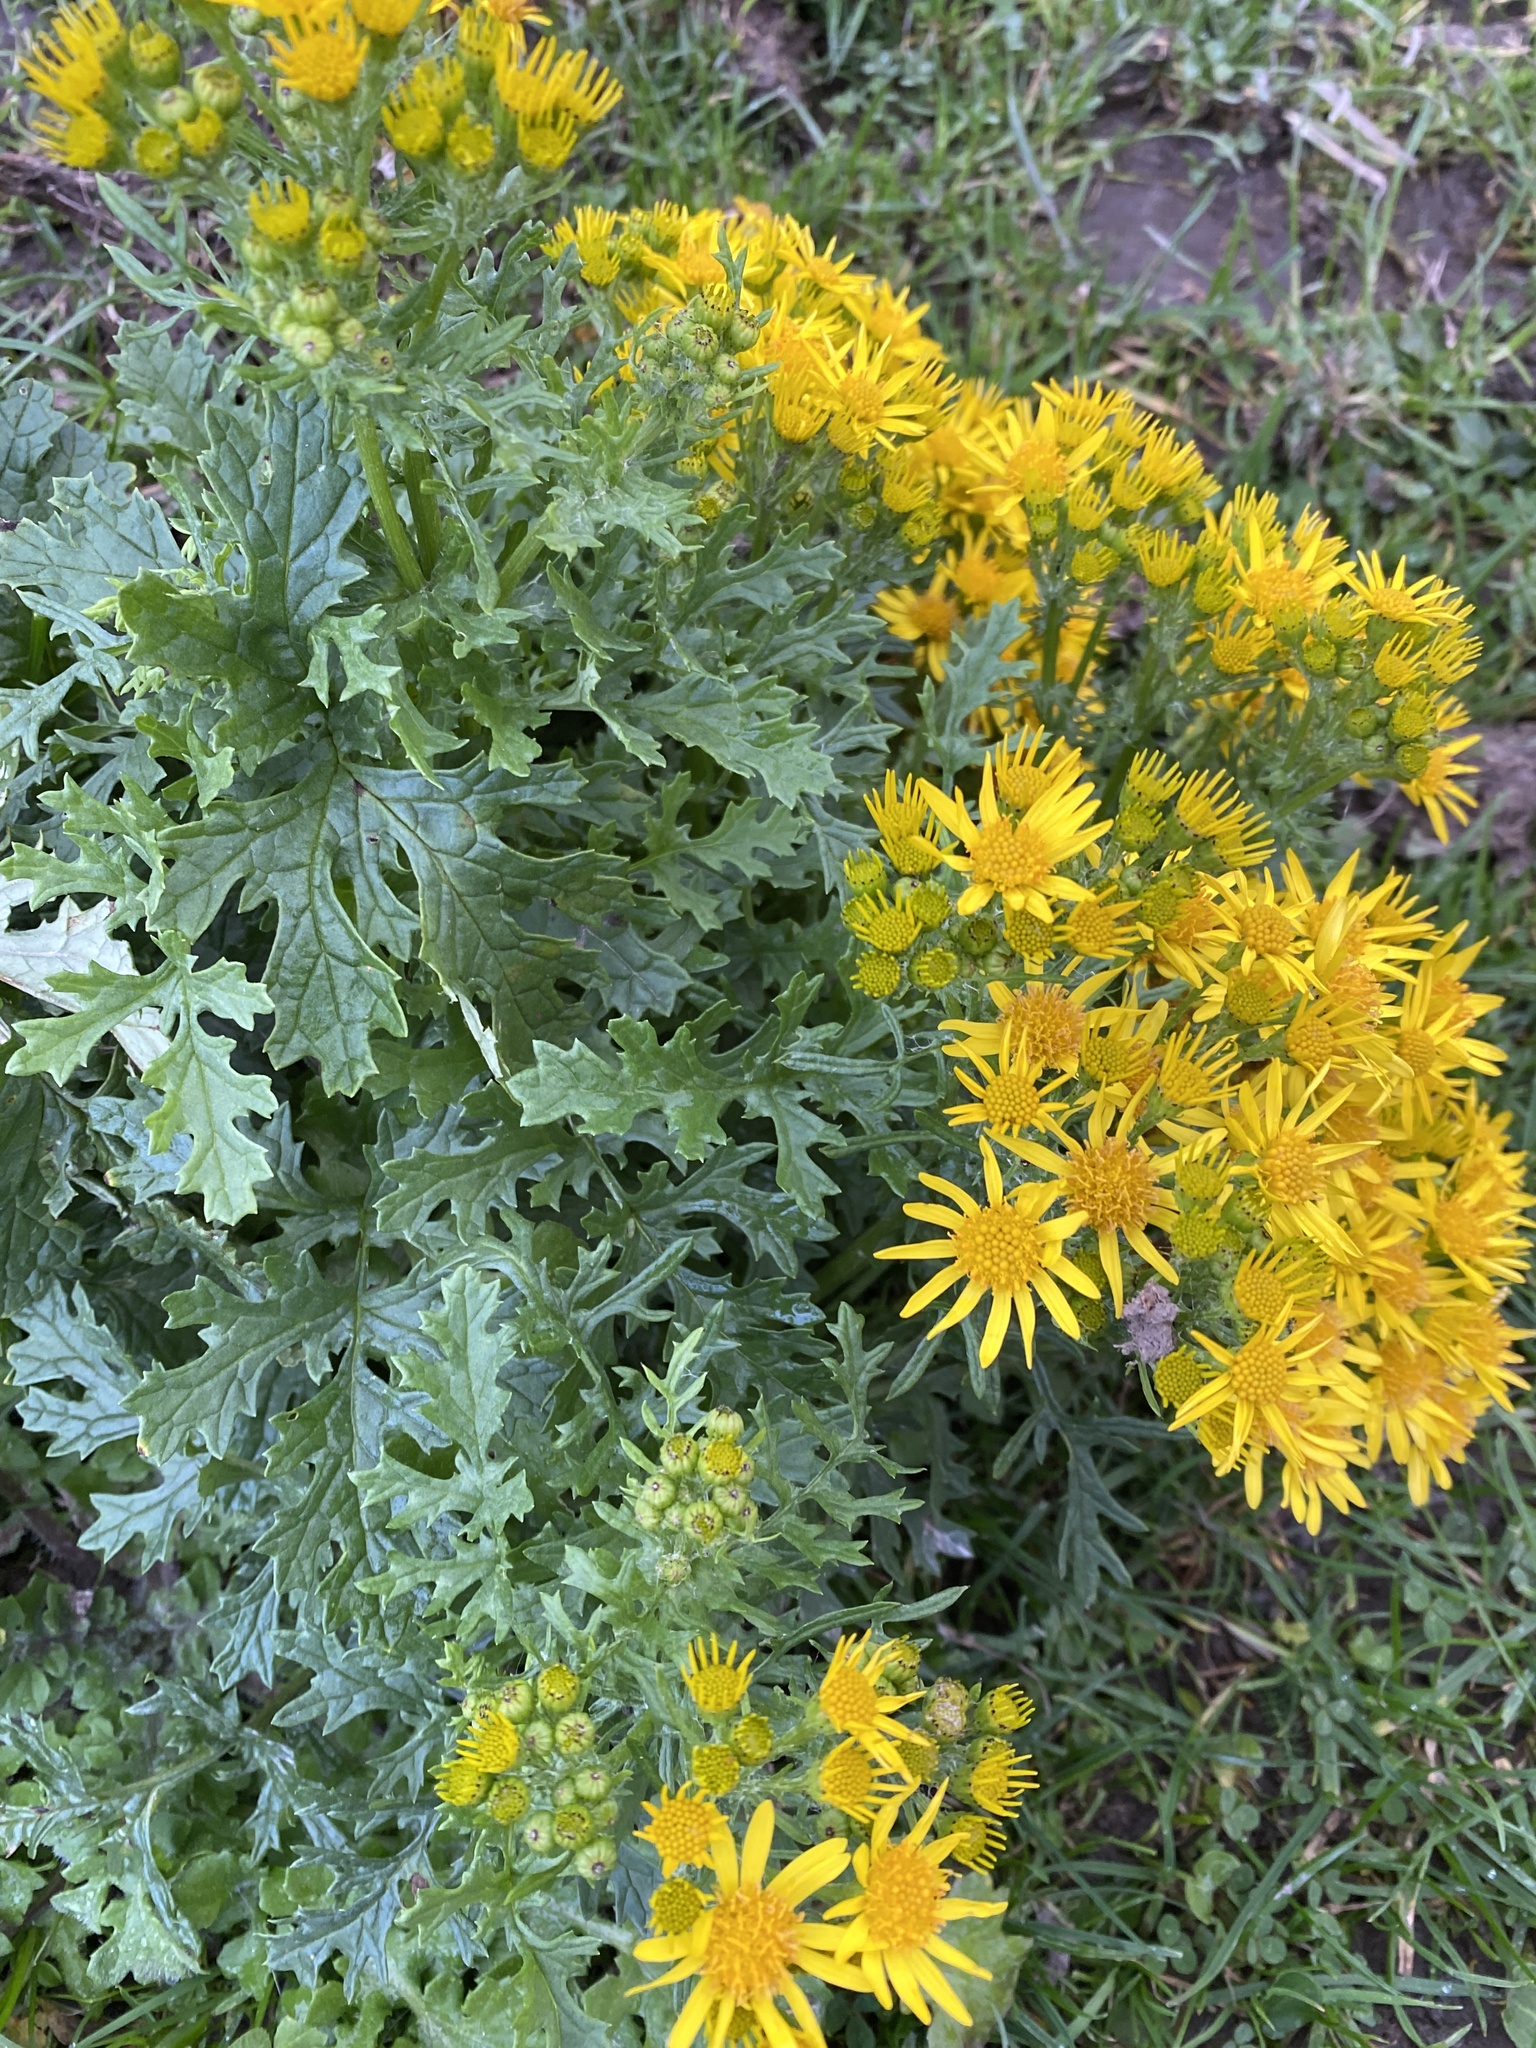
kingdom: Plantae
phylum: Tracheophyta
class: Magnoliopsida
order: Asterales
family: Asteraceae
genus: Jacobaea
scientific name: Jacobaea vulgaris
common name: Stinking willie
